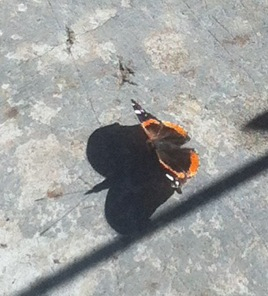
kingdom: Animalia
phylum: Arthropoda
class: Insecta
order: Lepidoptera
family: Nymphalidae
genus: Vanessa
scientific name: Vanessa atalanta
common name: Red admiral
